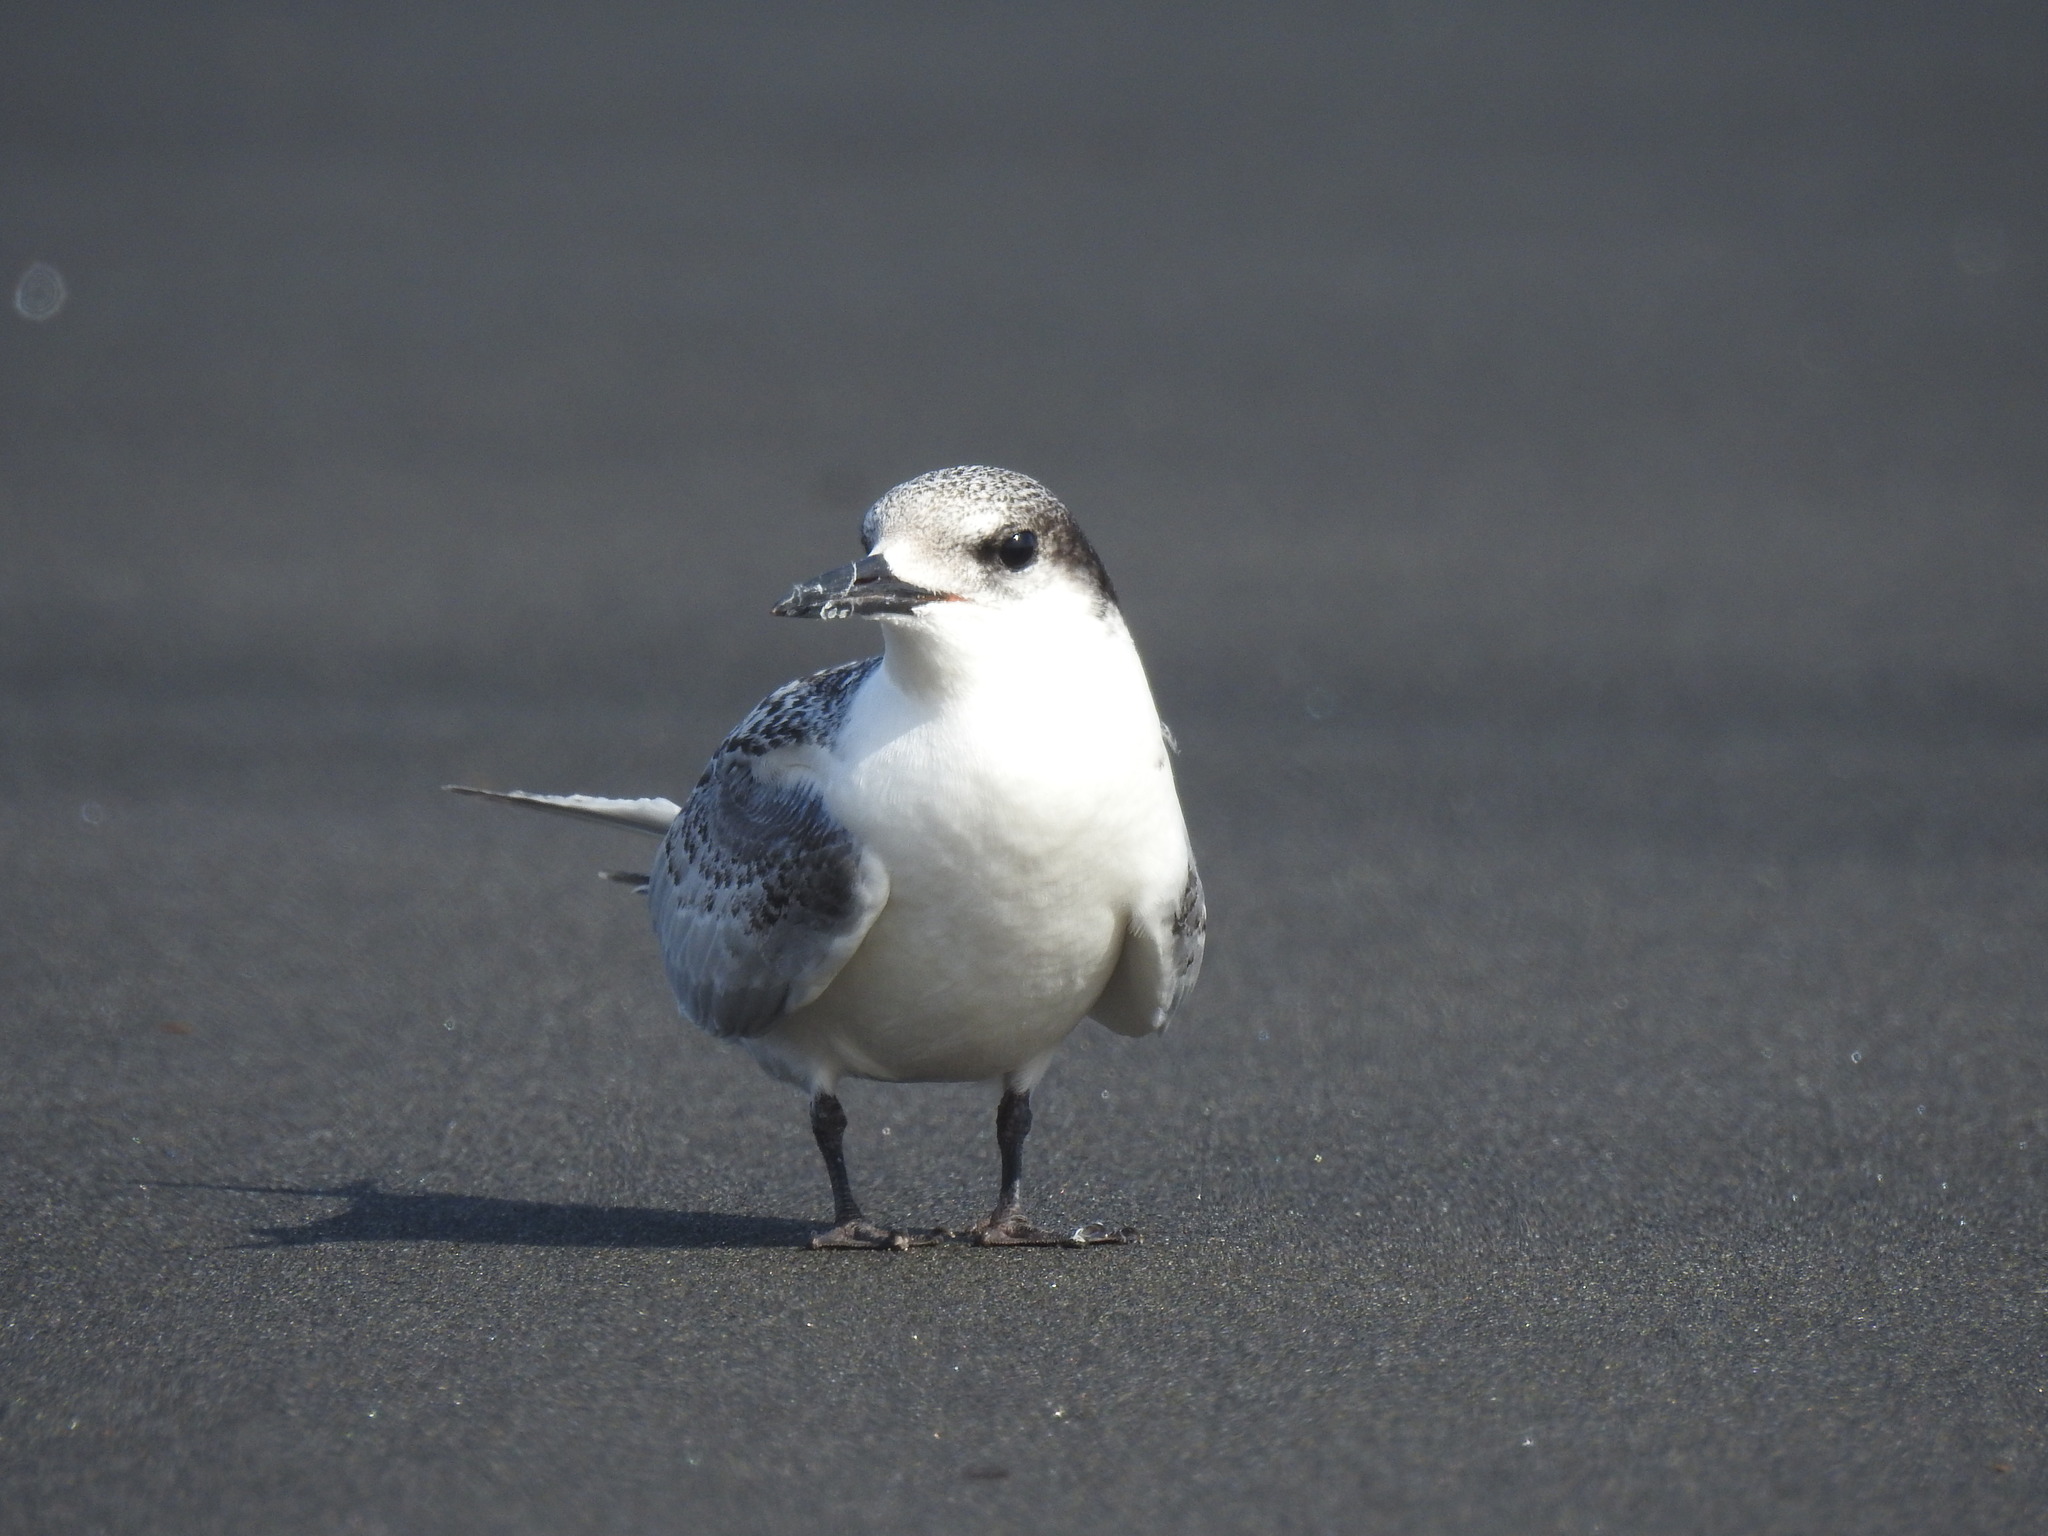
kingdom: Animalia
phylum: Chordata
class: Aves
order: Charadriiformes
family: Laridae
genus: Sterna
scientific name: Sterna striata
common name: White-fronted tern
